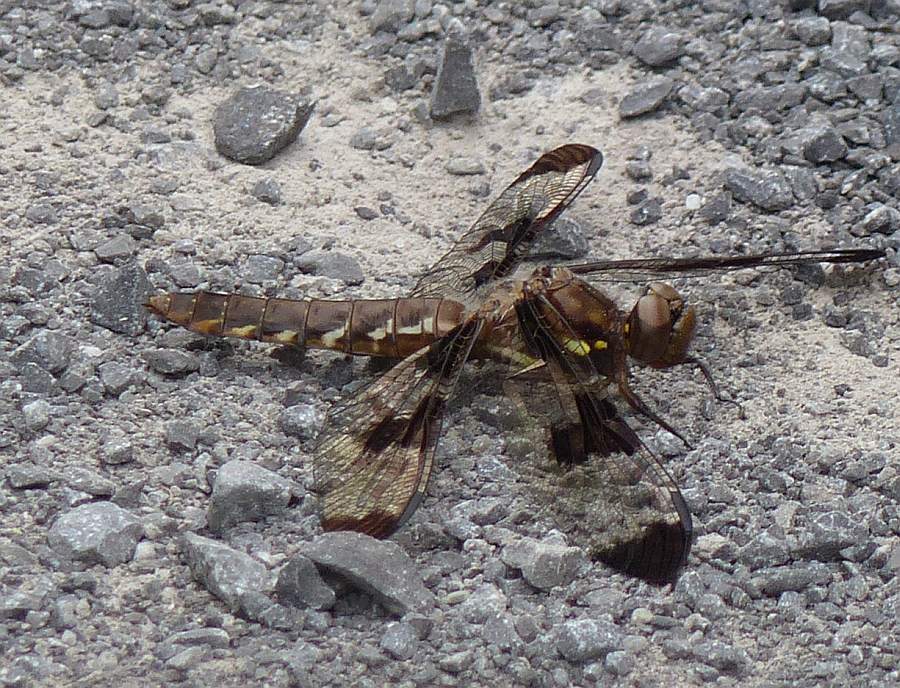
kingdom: Animalia
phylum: Arthropoda
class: Insecta
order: Odonata
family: Libellulidae
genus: Plathemis
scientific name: Plathemis lydia
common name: Common whitetail
